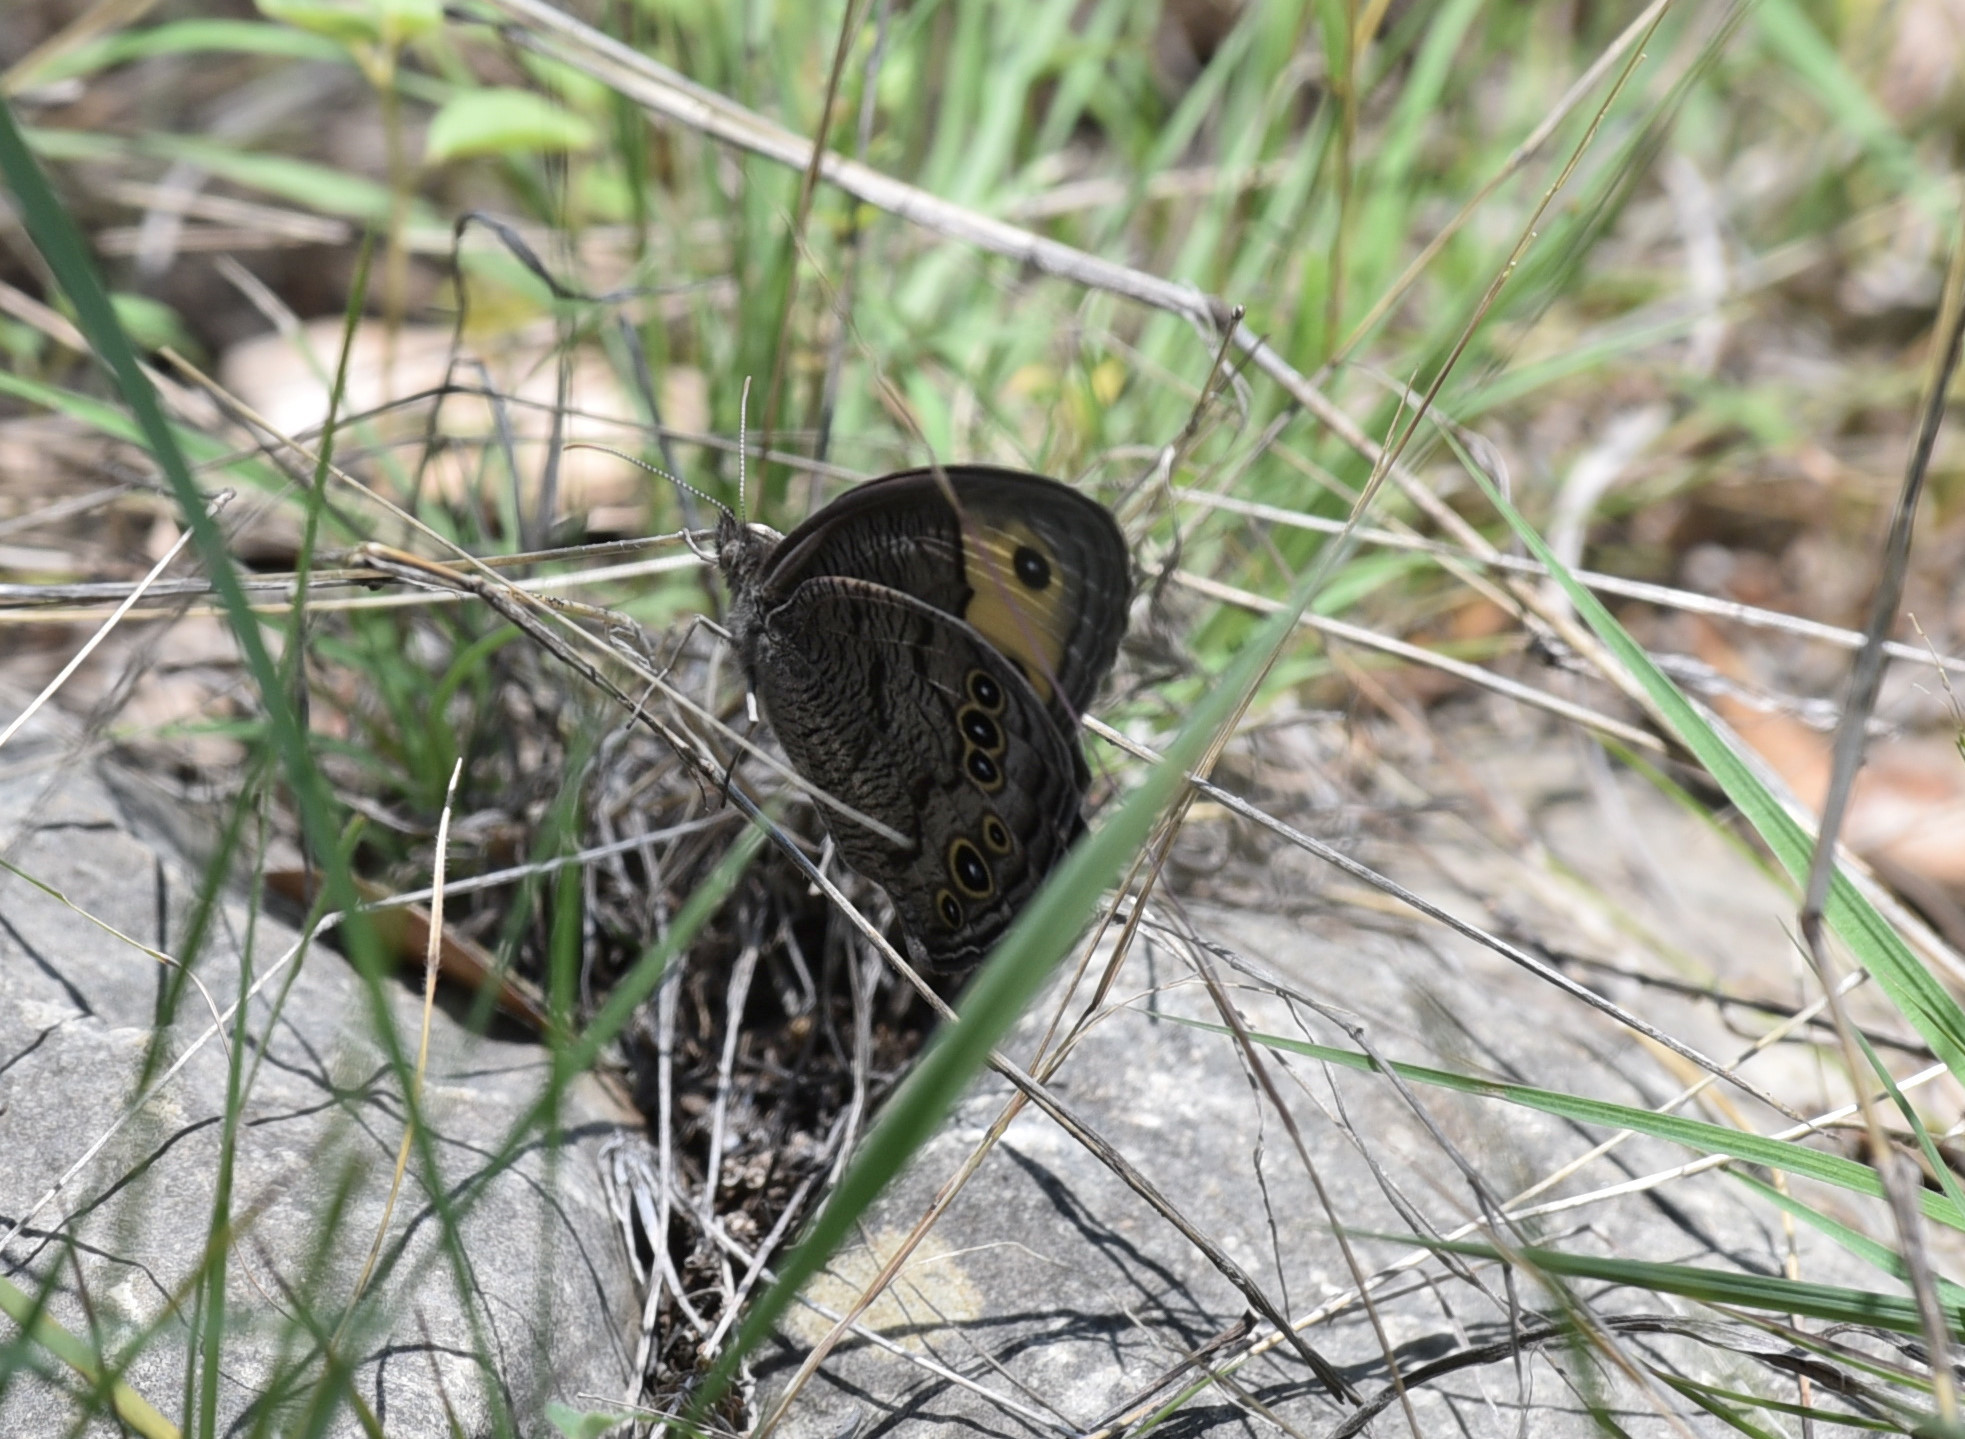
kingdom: Animalia
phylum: Arthropoda
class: Insecta
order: Lepidoptera
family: Nymphalidae
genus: Cercyonis
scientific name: Cercyonis pegala
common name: Common wood-nymph
